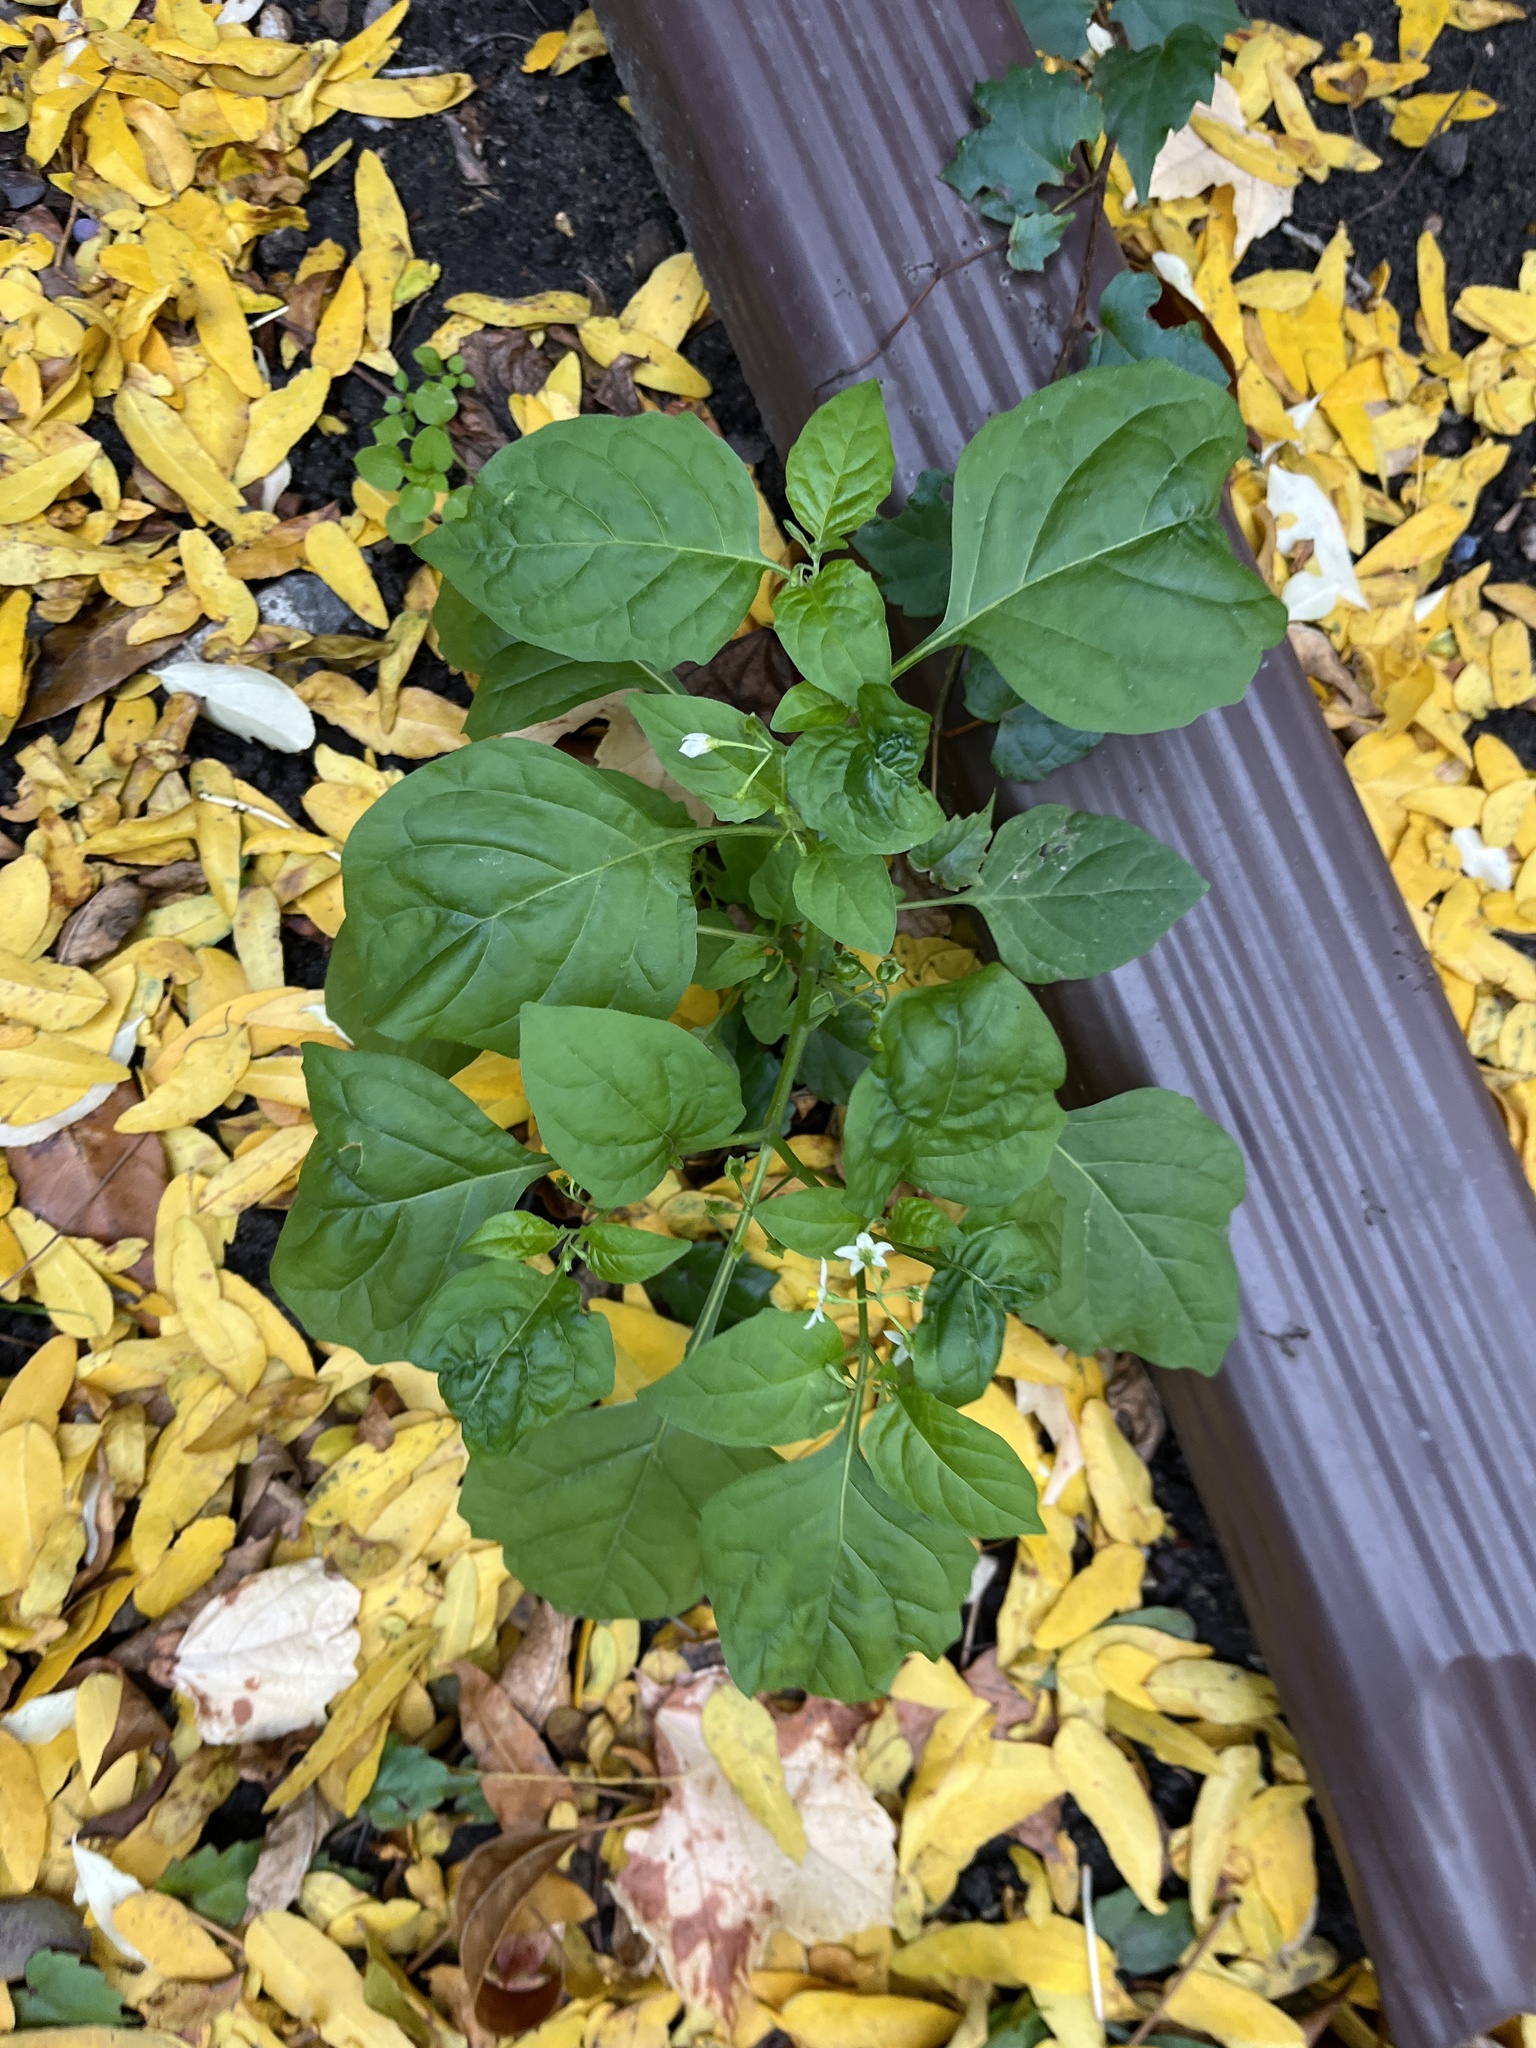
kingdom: Plantae
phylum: Tracheophyta
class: Magnoliopsida
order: Solanales
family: Solanaceae
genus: Solanum
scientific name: Solanum emulans
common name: Eastern black nightshade
